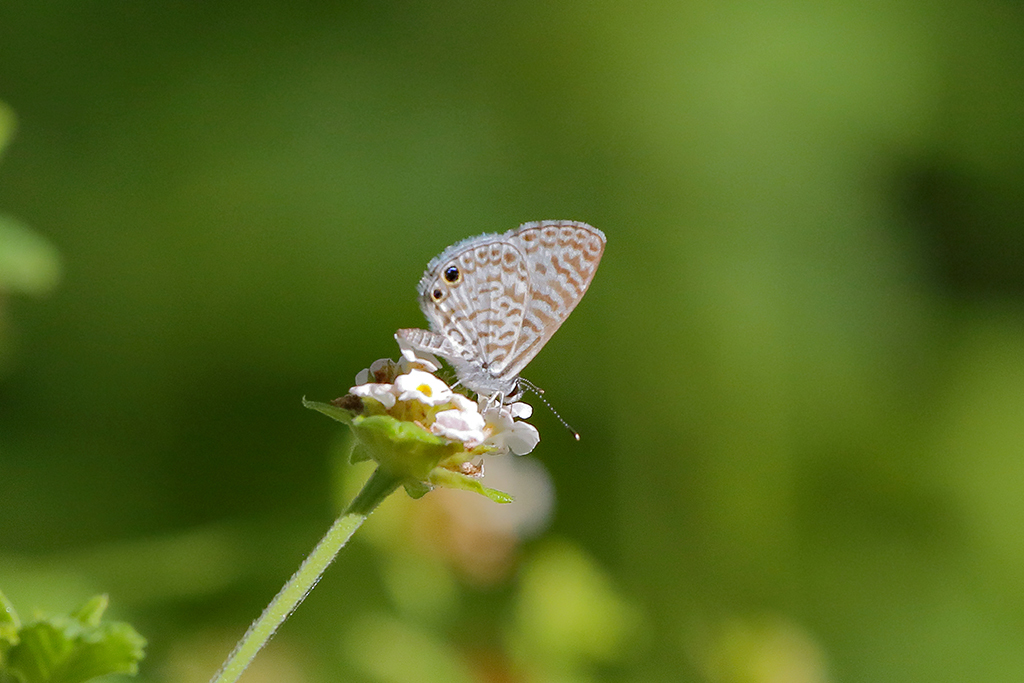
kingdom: Animalia
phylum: Arthropoda
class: Insecta
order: Lepidoptera
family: Lycaenidae
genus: Leptotes
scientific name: Leptotes cassius
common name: Cassius blue
